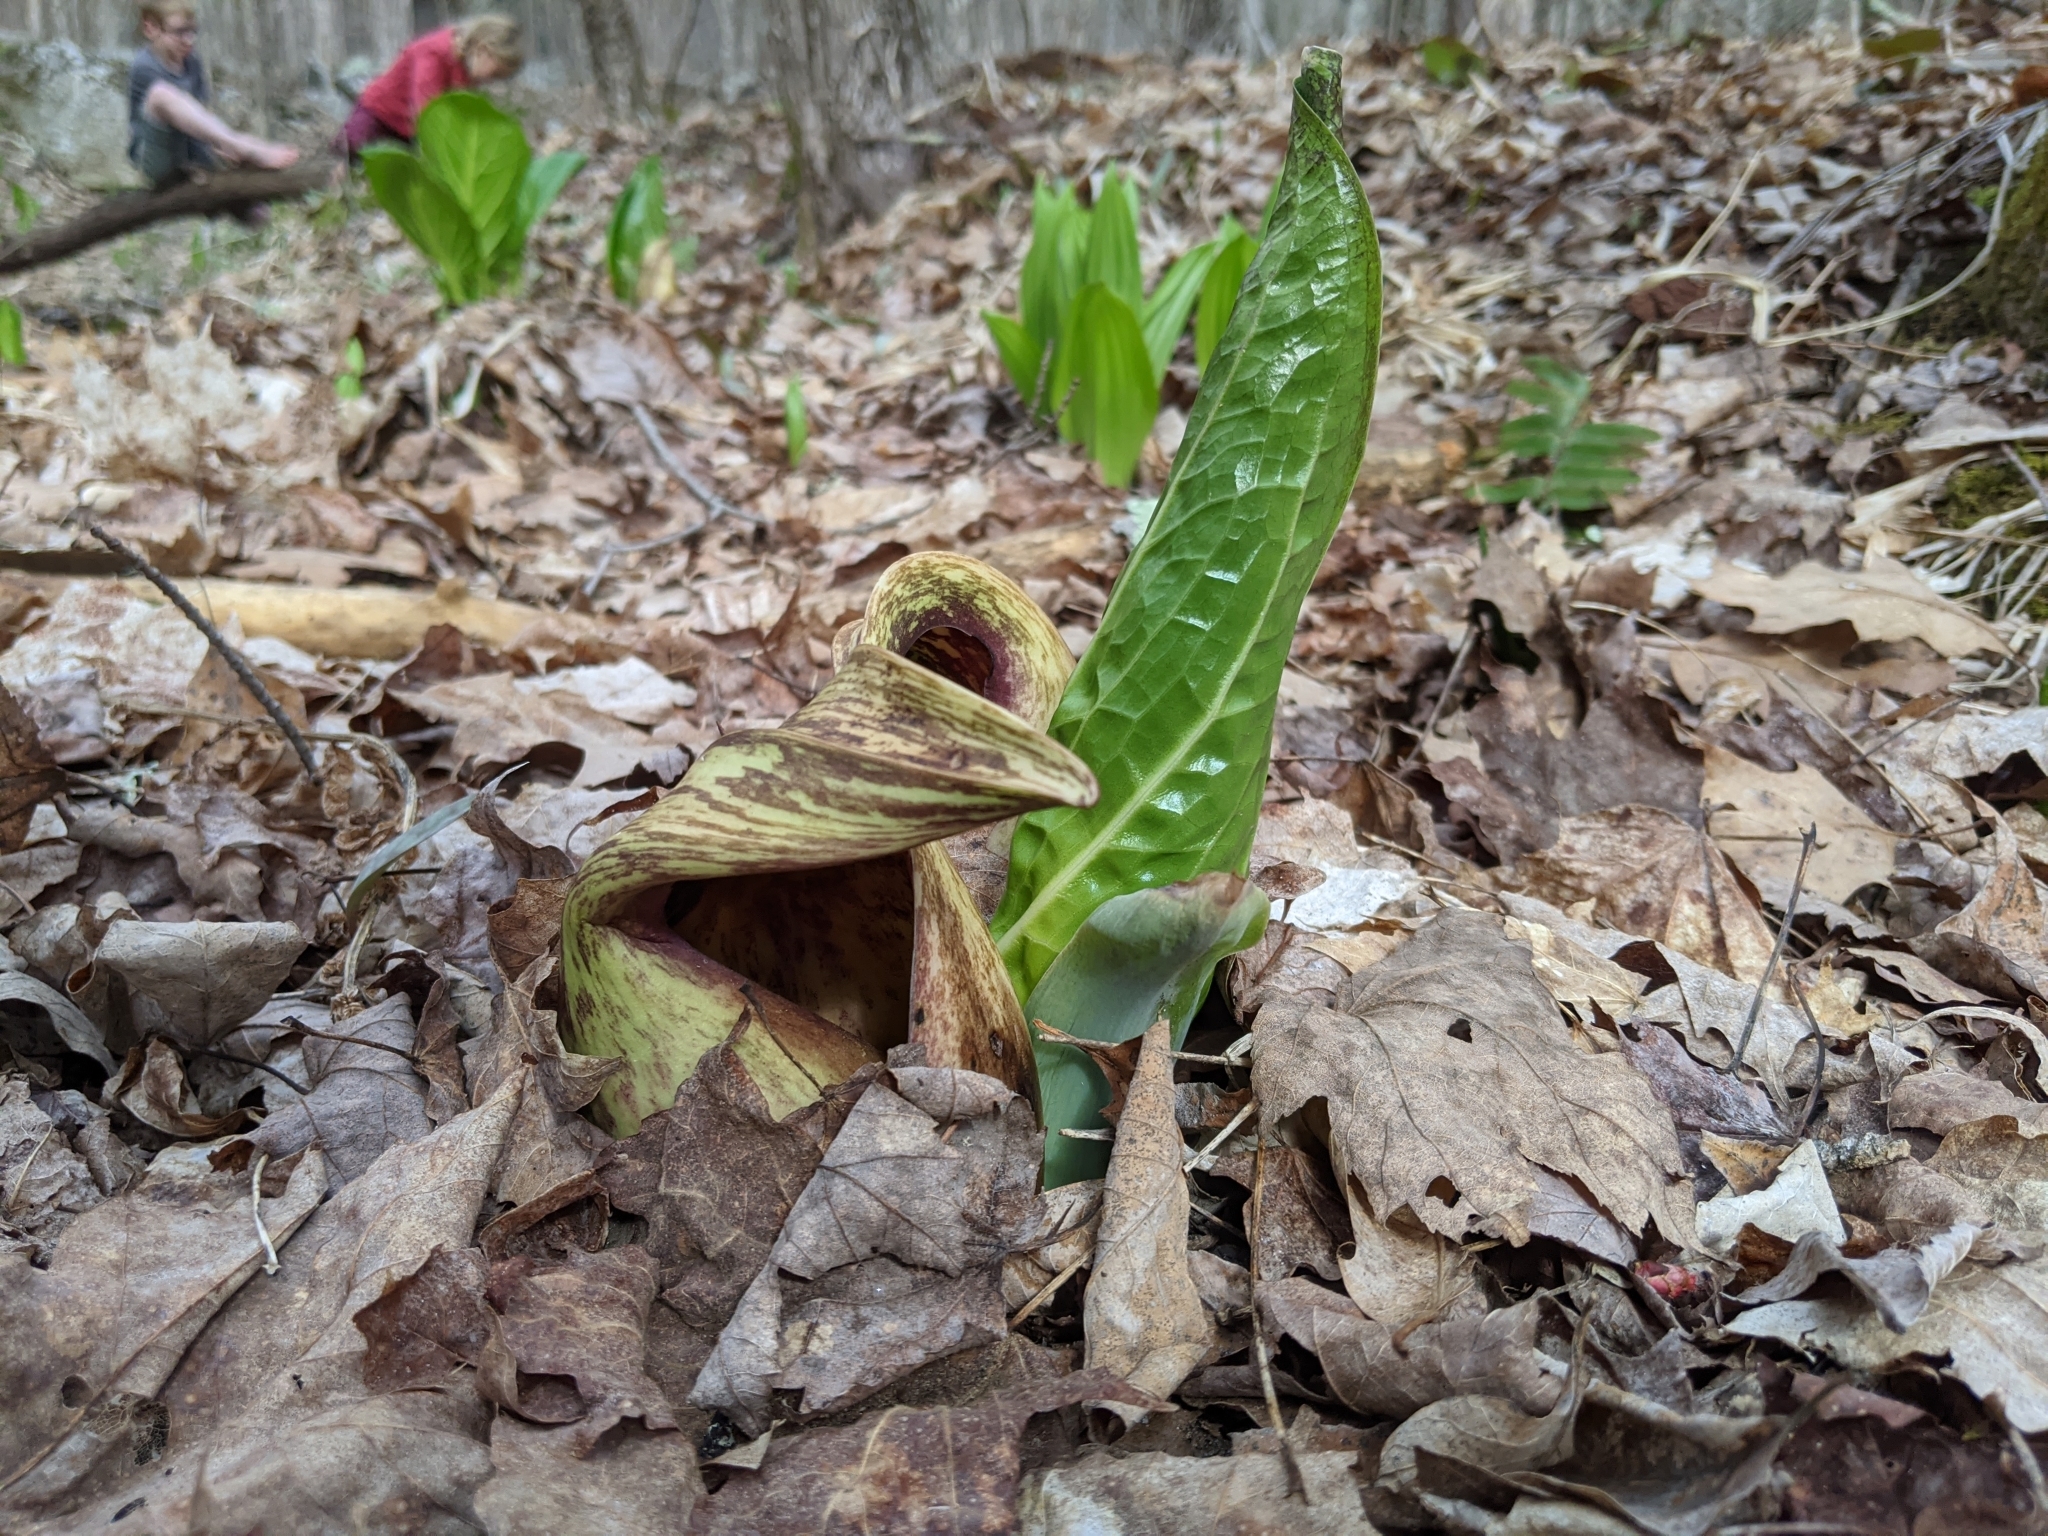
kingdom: Plantae
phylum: Tracheophyta
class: Liliopsida
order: Alismatales
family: Araceae
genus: Symplocarpus
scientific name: Symplocarpus foetidus
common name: Eastern skunk cabbage
